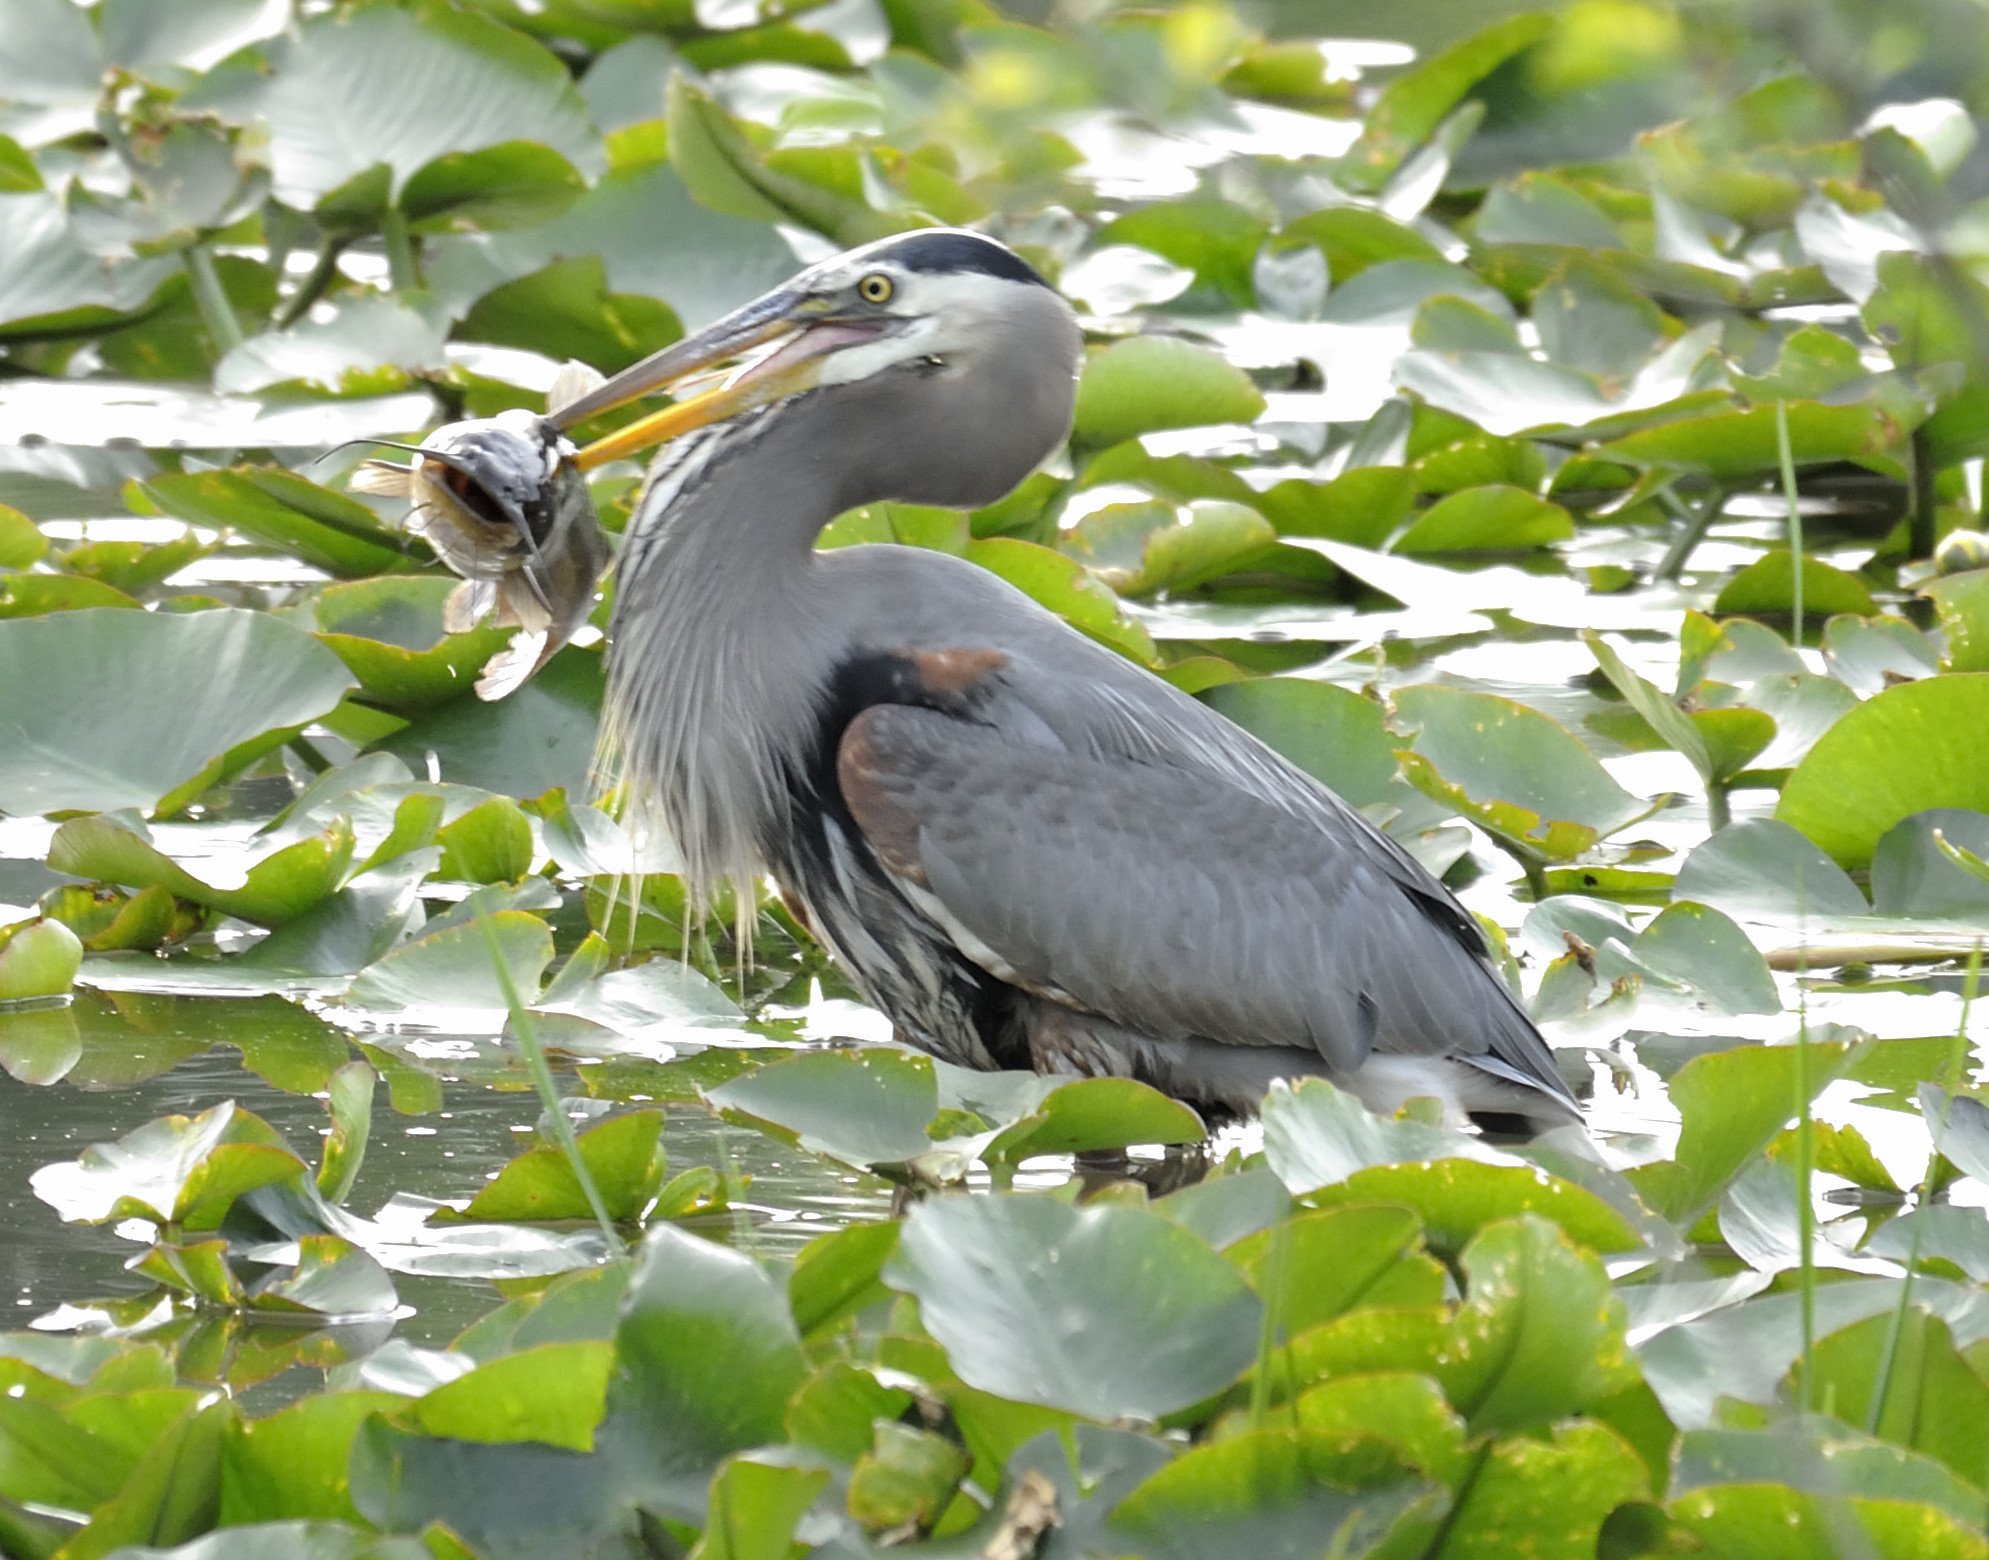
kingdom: Animalia
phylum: Chordata
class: Aves
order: Pelecaniformes
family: Ardeidae
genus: Ardea
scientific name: Ardea herodias
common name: Great blue heron
